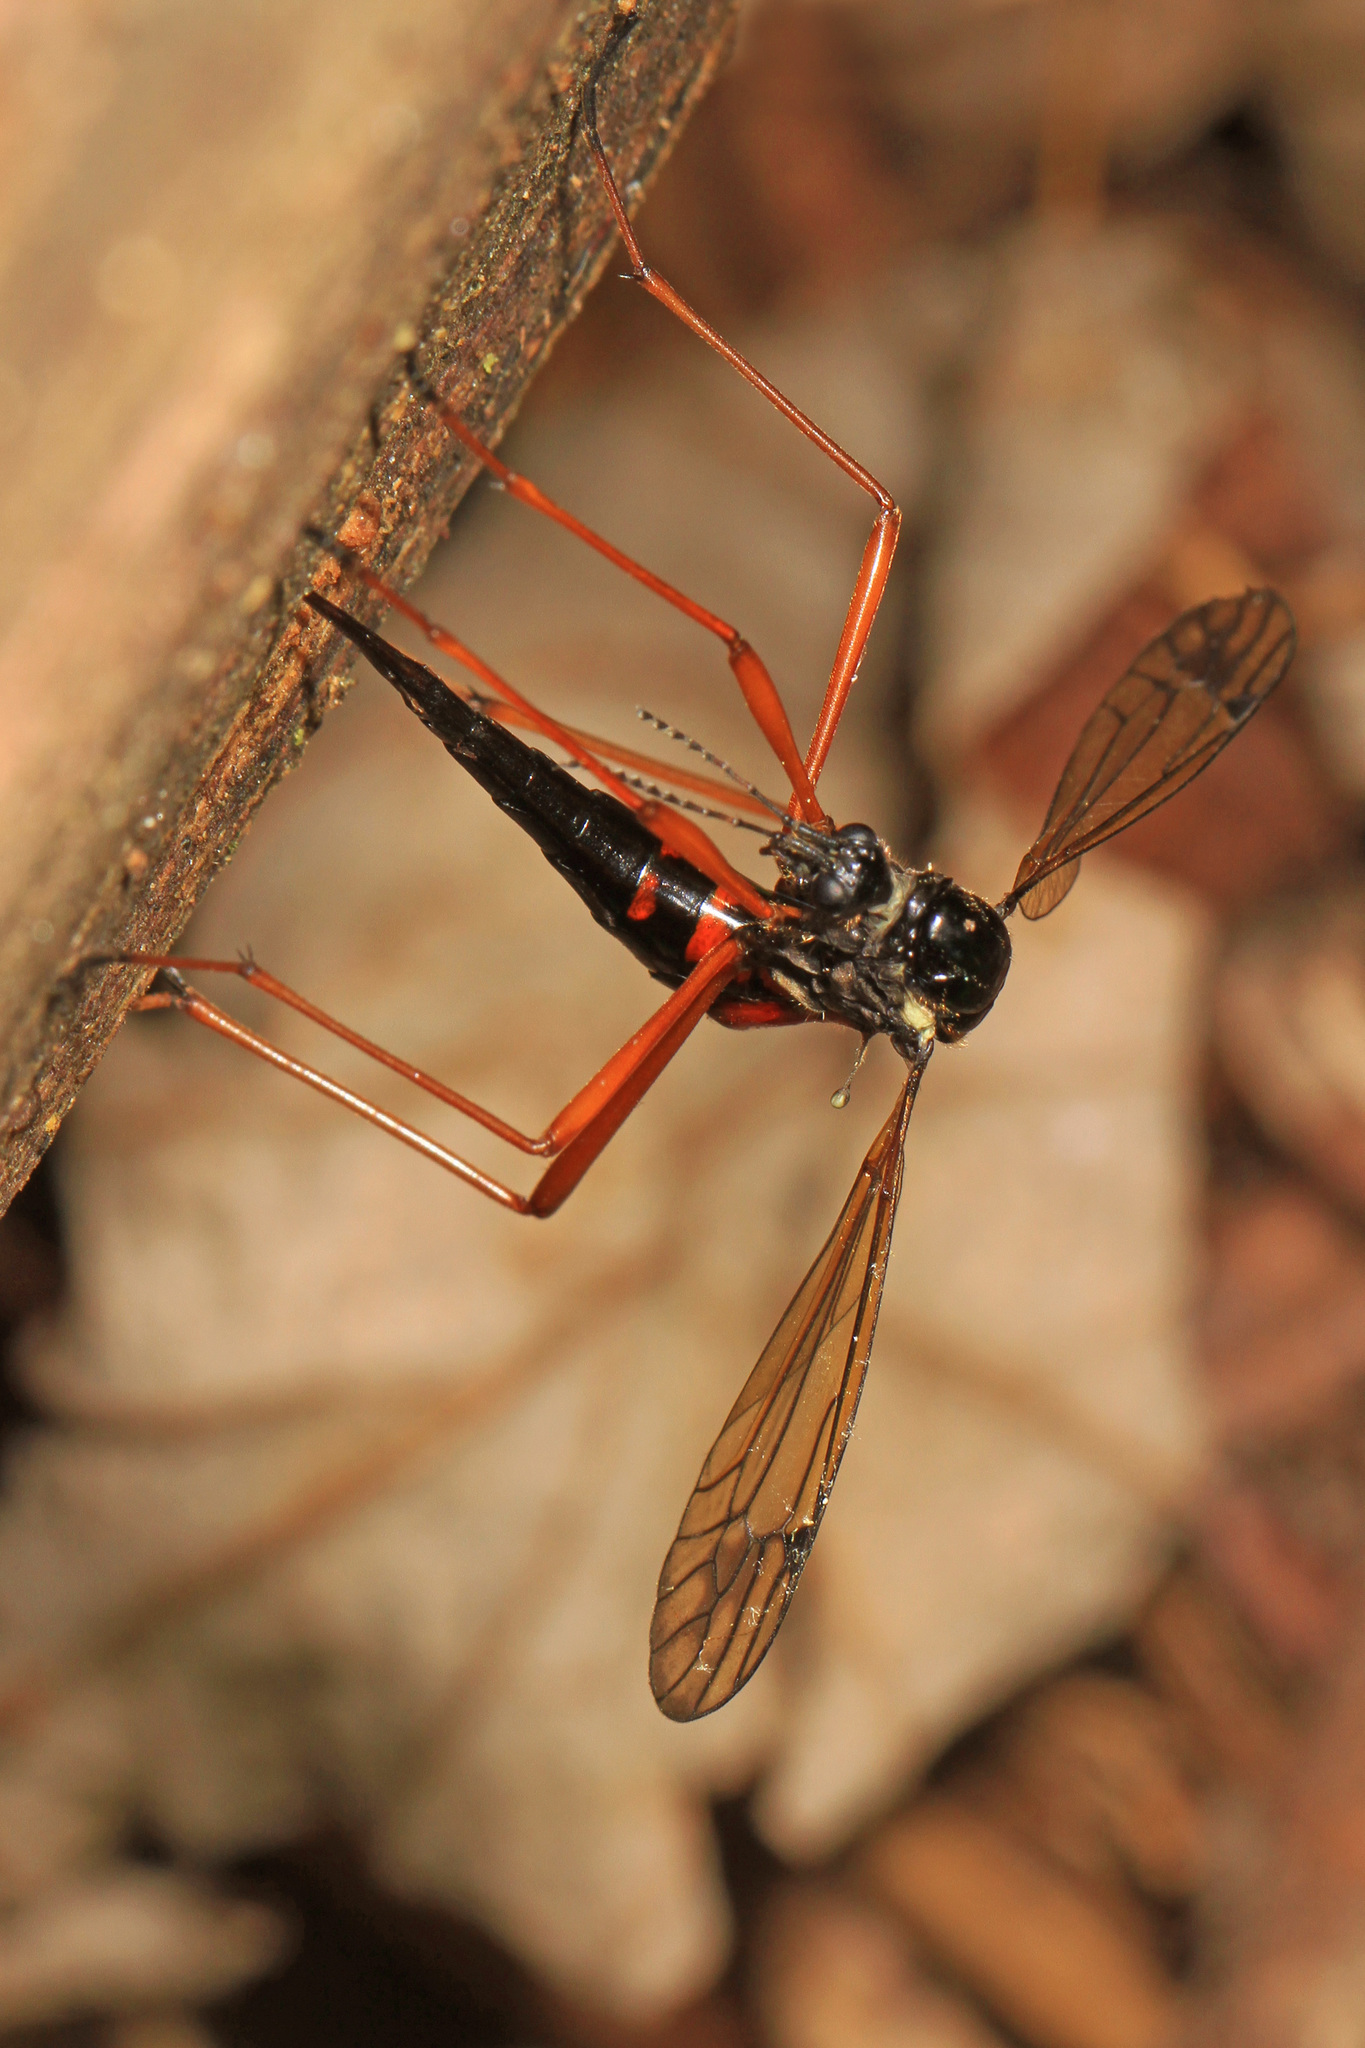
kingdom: Animalia
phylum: Arthropoda
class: Insecta
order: Diptera
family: Tipulidae
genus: Tanyptera
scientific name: Tanyptera dorsalis
